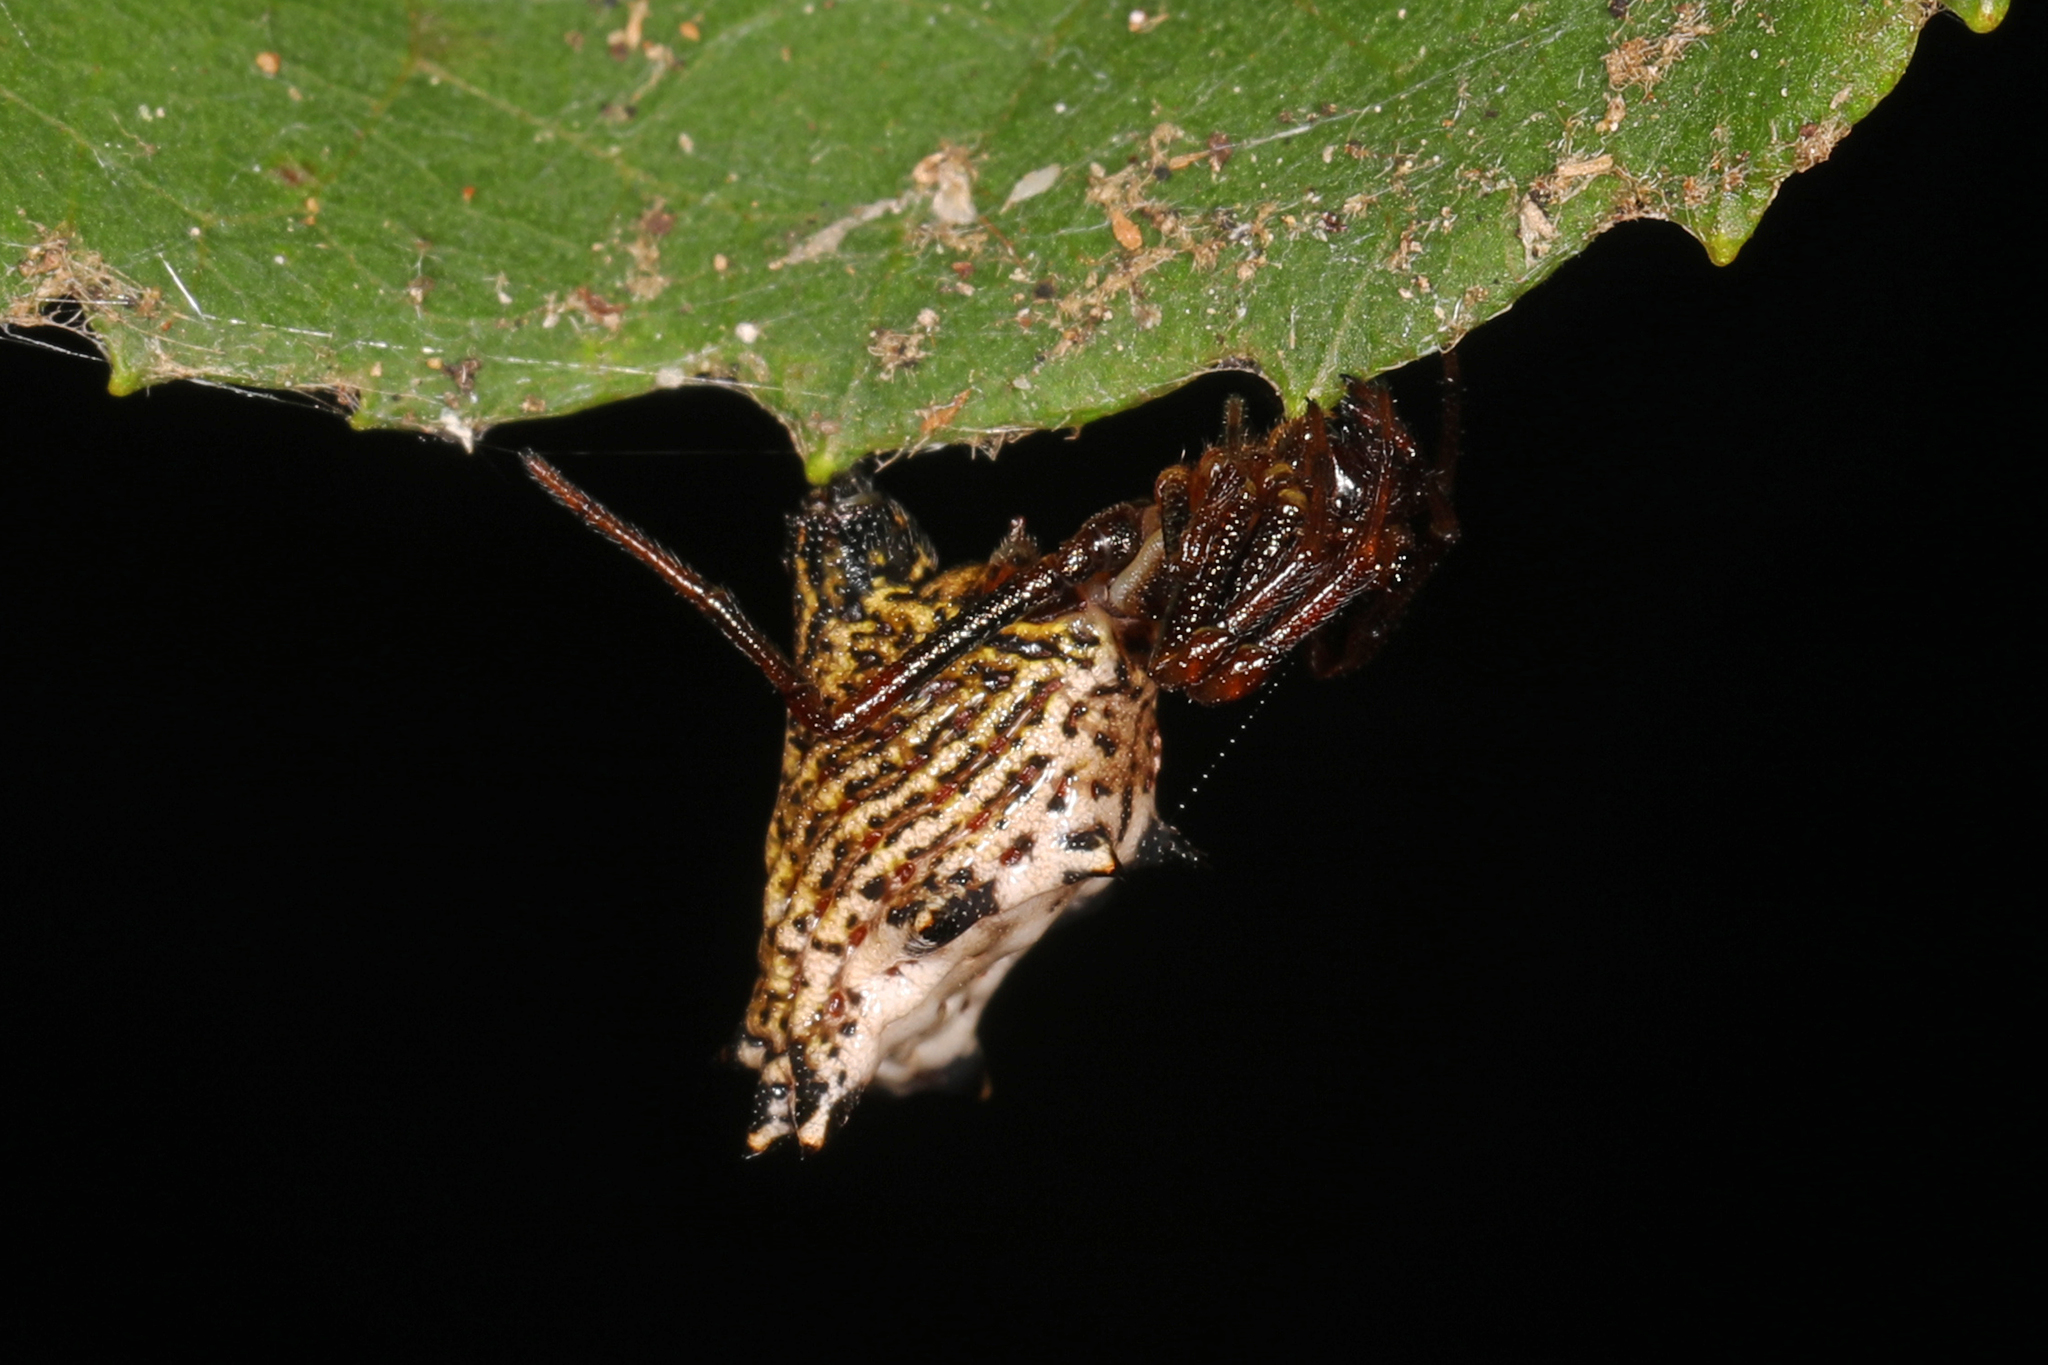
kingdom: Animalia
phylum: Arthropoda
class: Arachnida
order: Araneae
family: Araneidae
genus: Micrathena
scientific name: Micrathena gracilis
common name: Orb weavers
